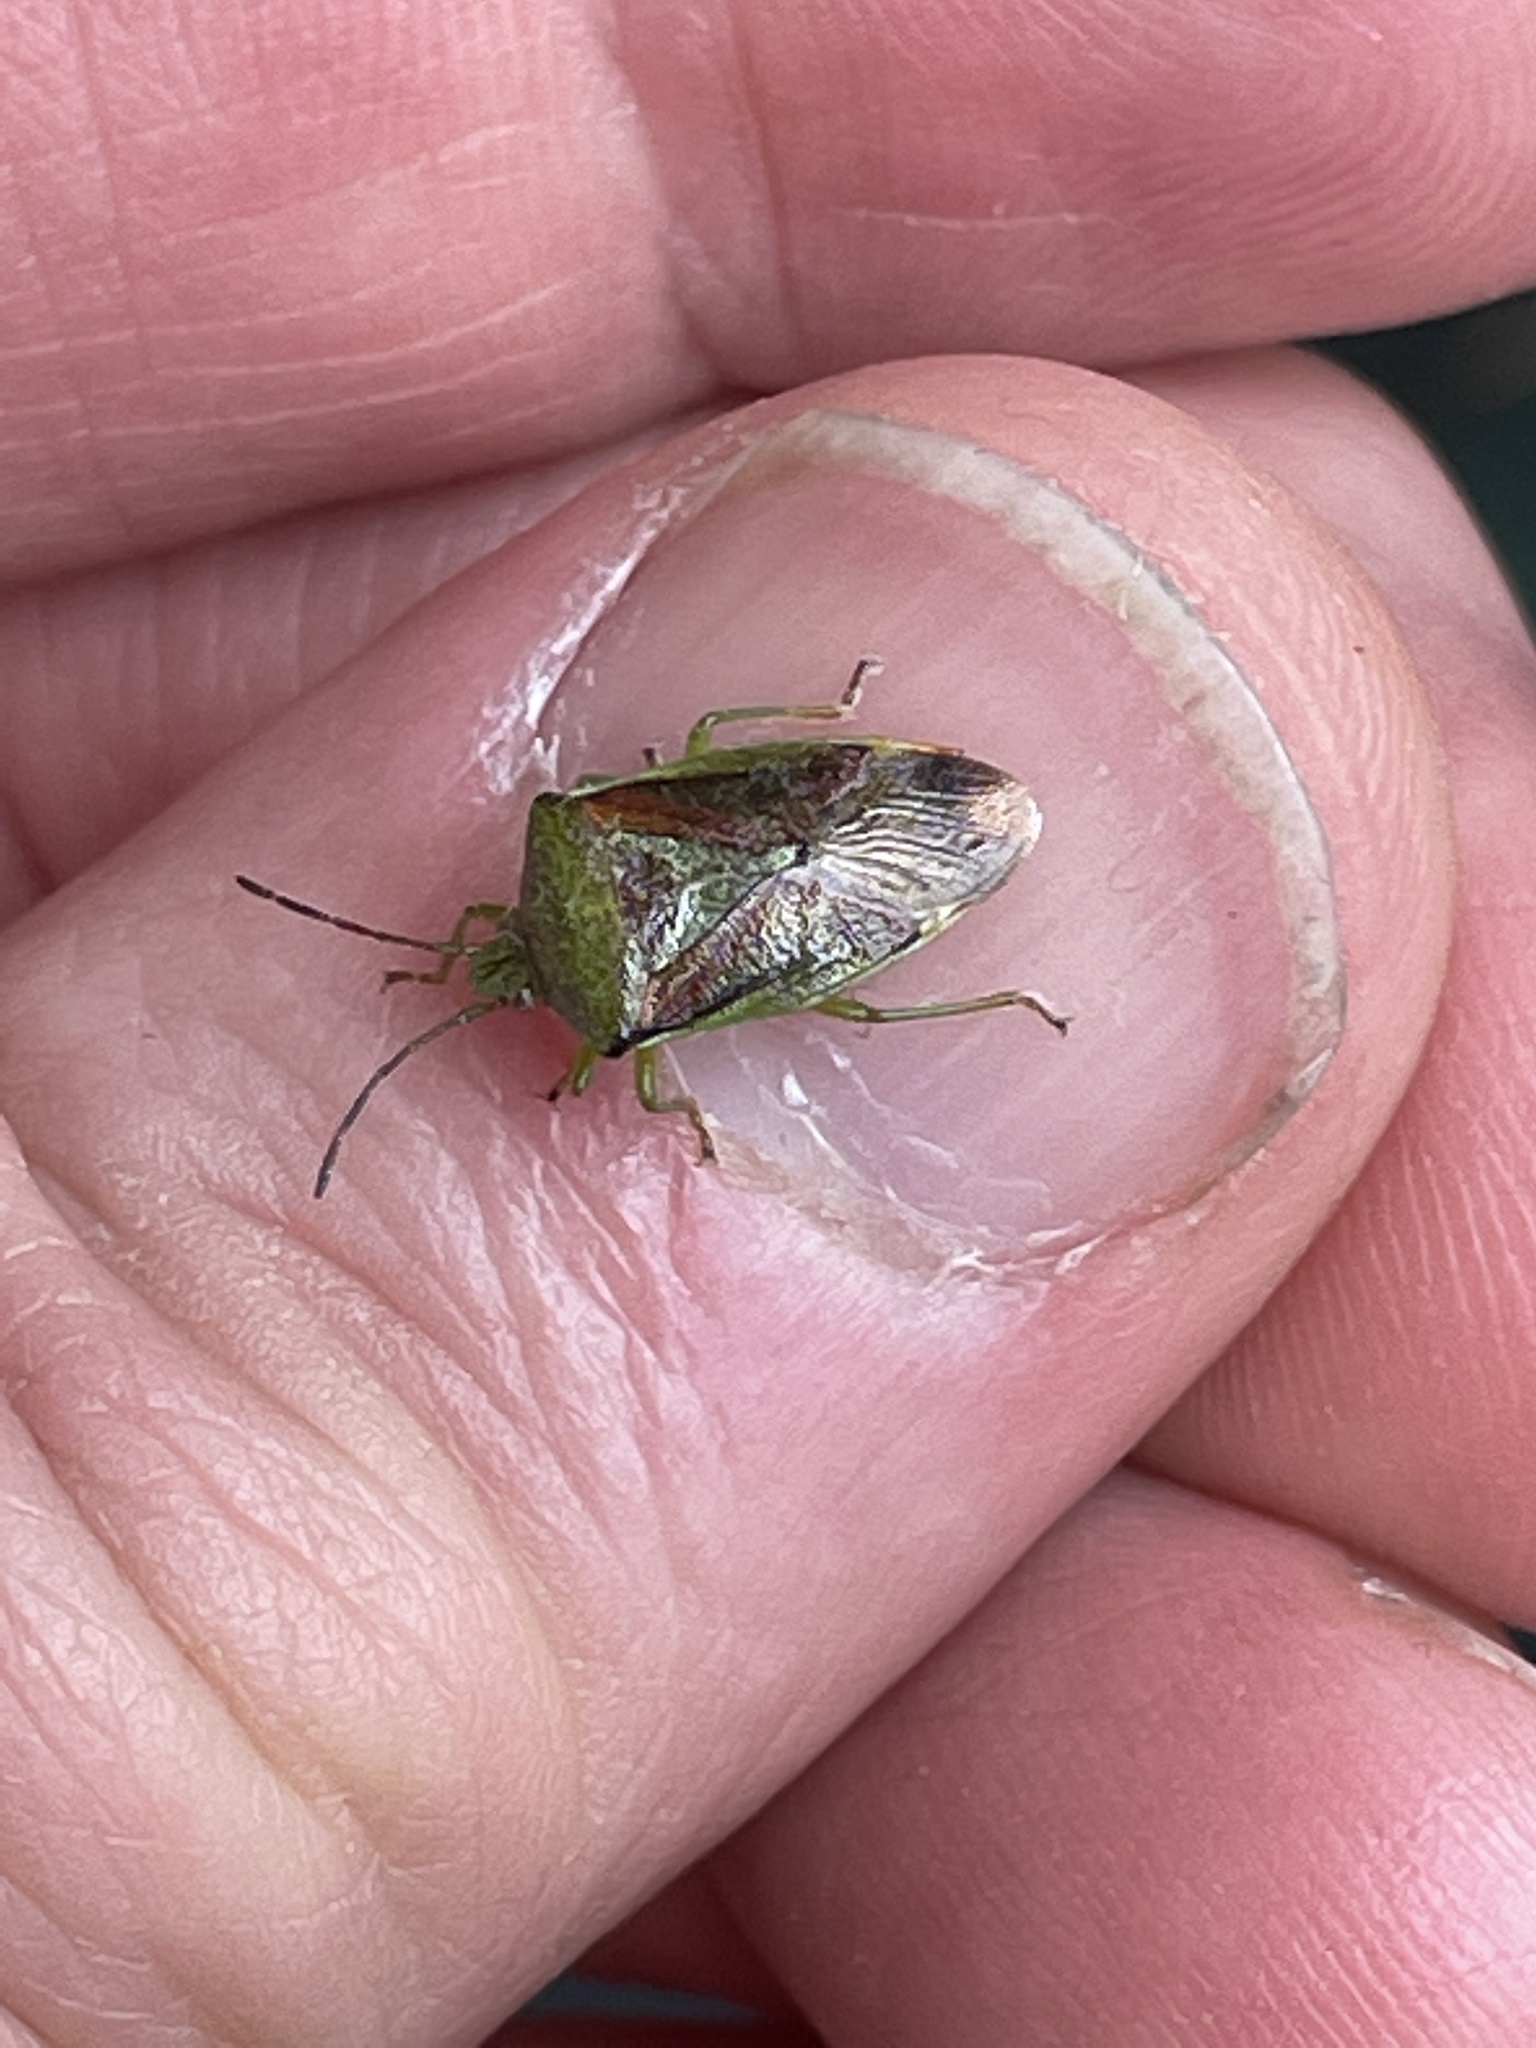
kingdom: Animalia
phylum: Arthropoda
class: Insecta
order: Hemiptera
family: Acanthosomatidae
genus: Elasmostethus
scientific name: Elasmostethus interstinctus
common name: Birch shieldbug
